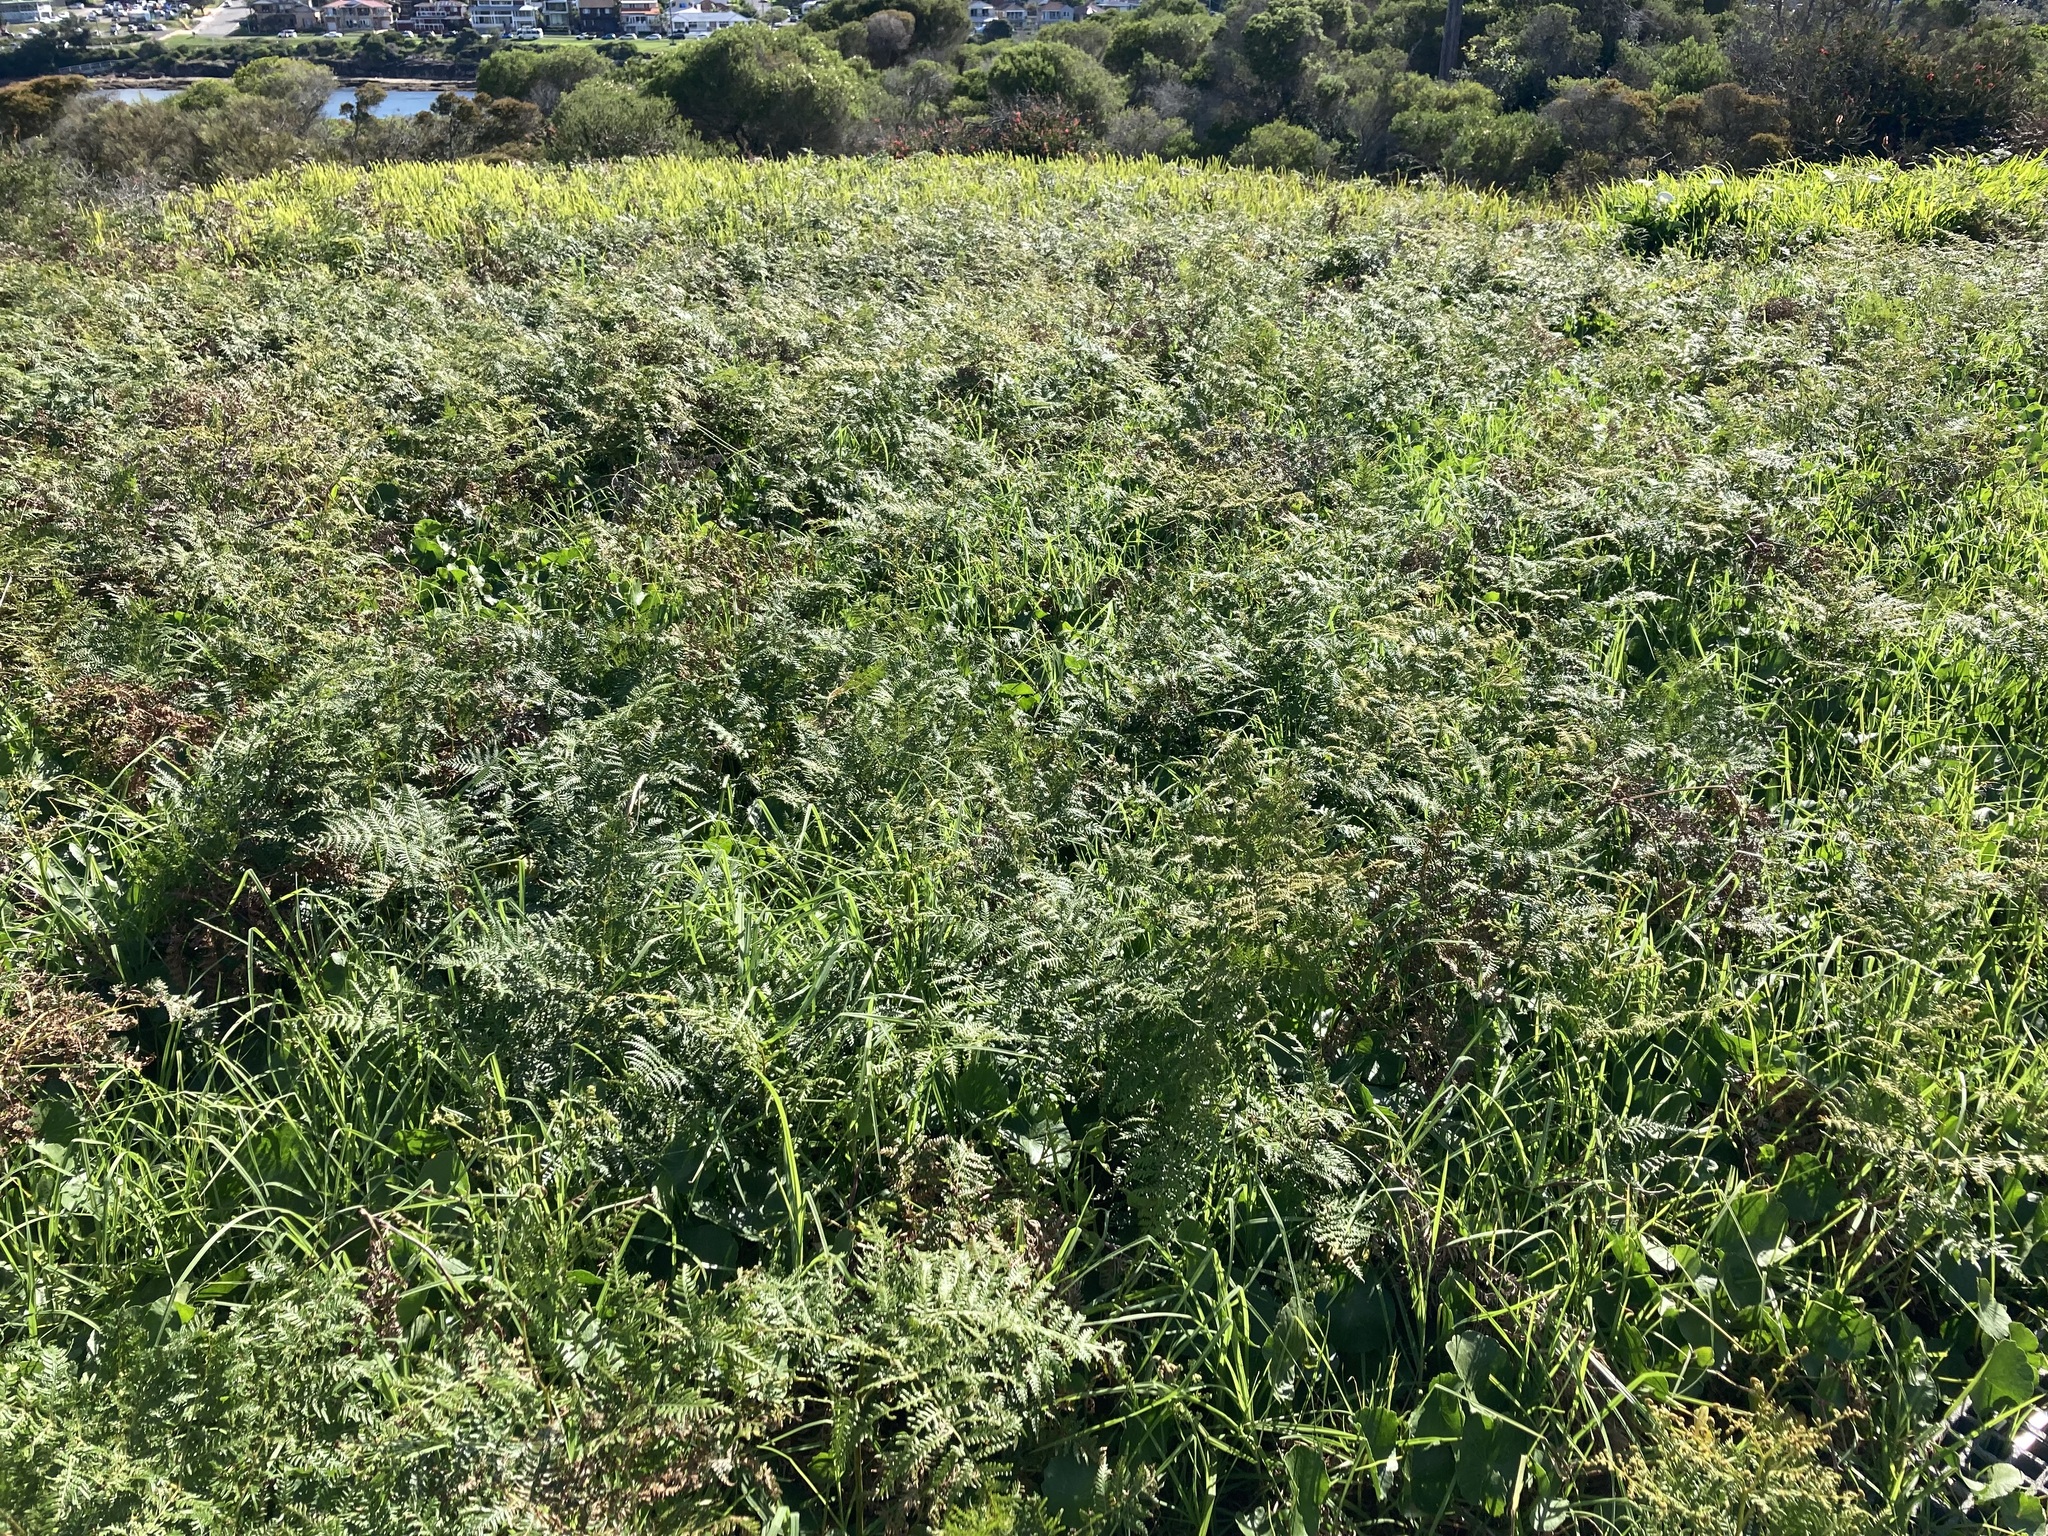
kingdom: Plantae
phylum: Tracheophyta
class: Polypodiopsida
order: Polypodiales
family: Dennstaedtiaceae
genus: Pteridium
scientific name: Pteridium esculentum
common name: Bracken fern
